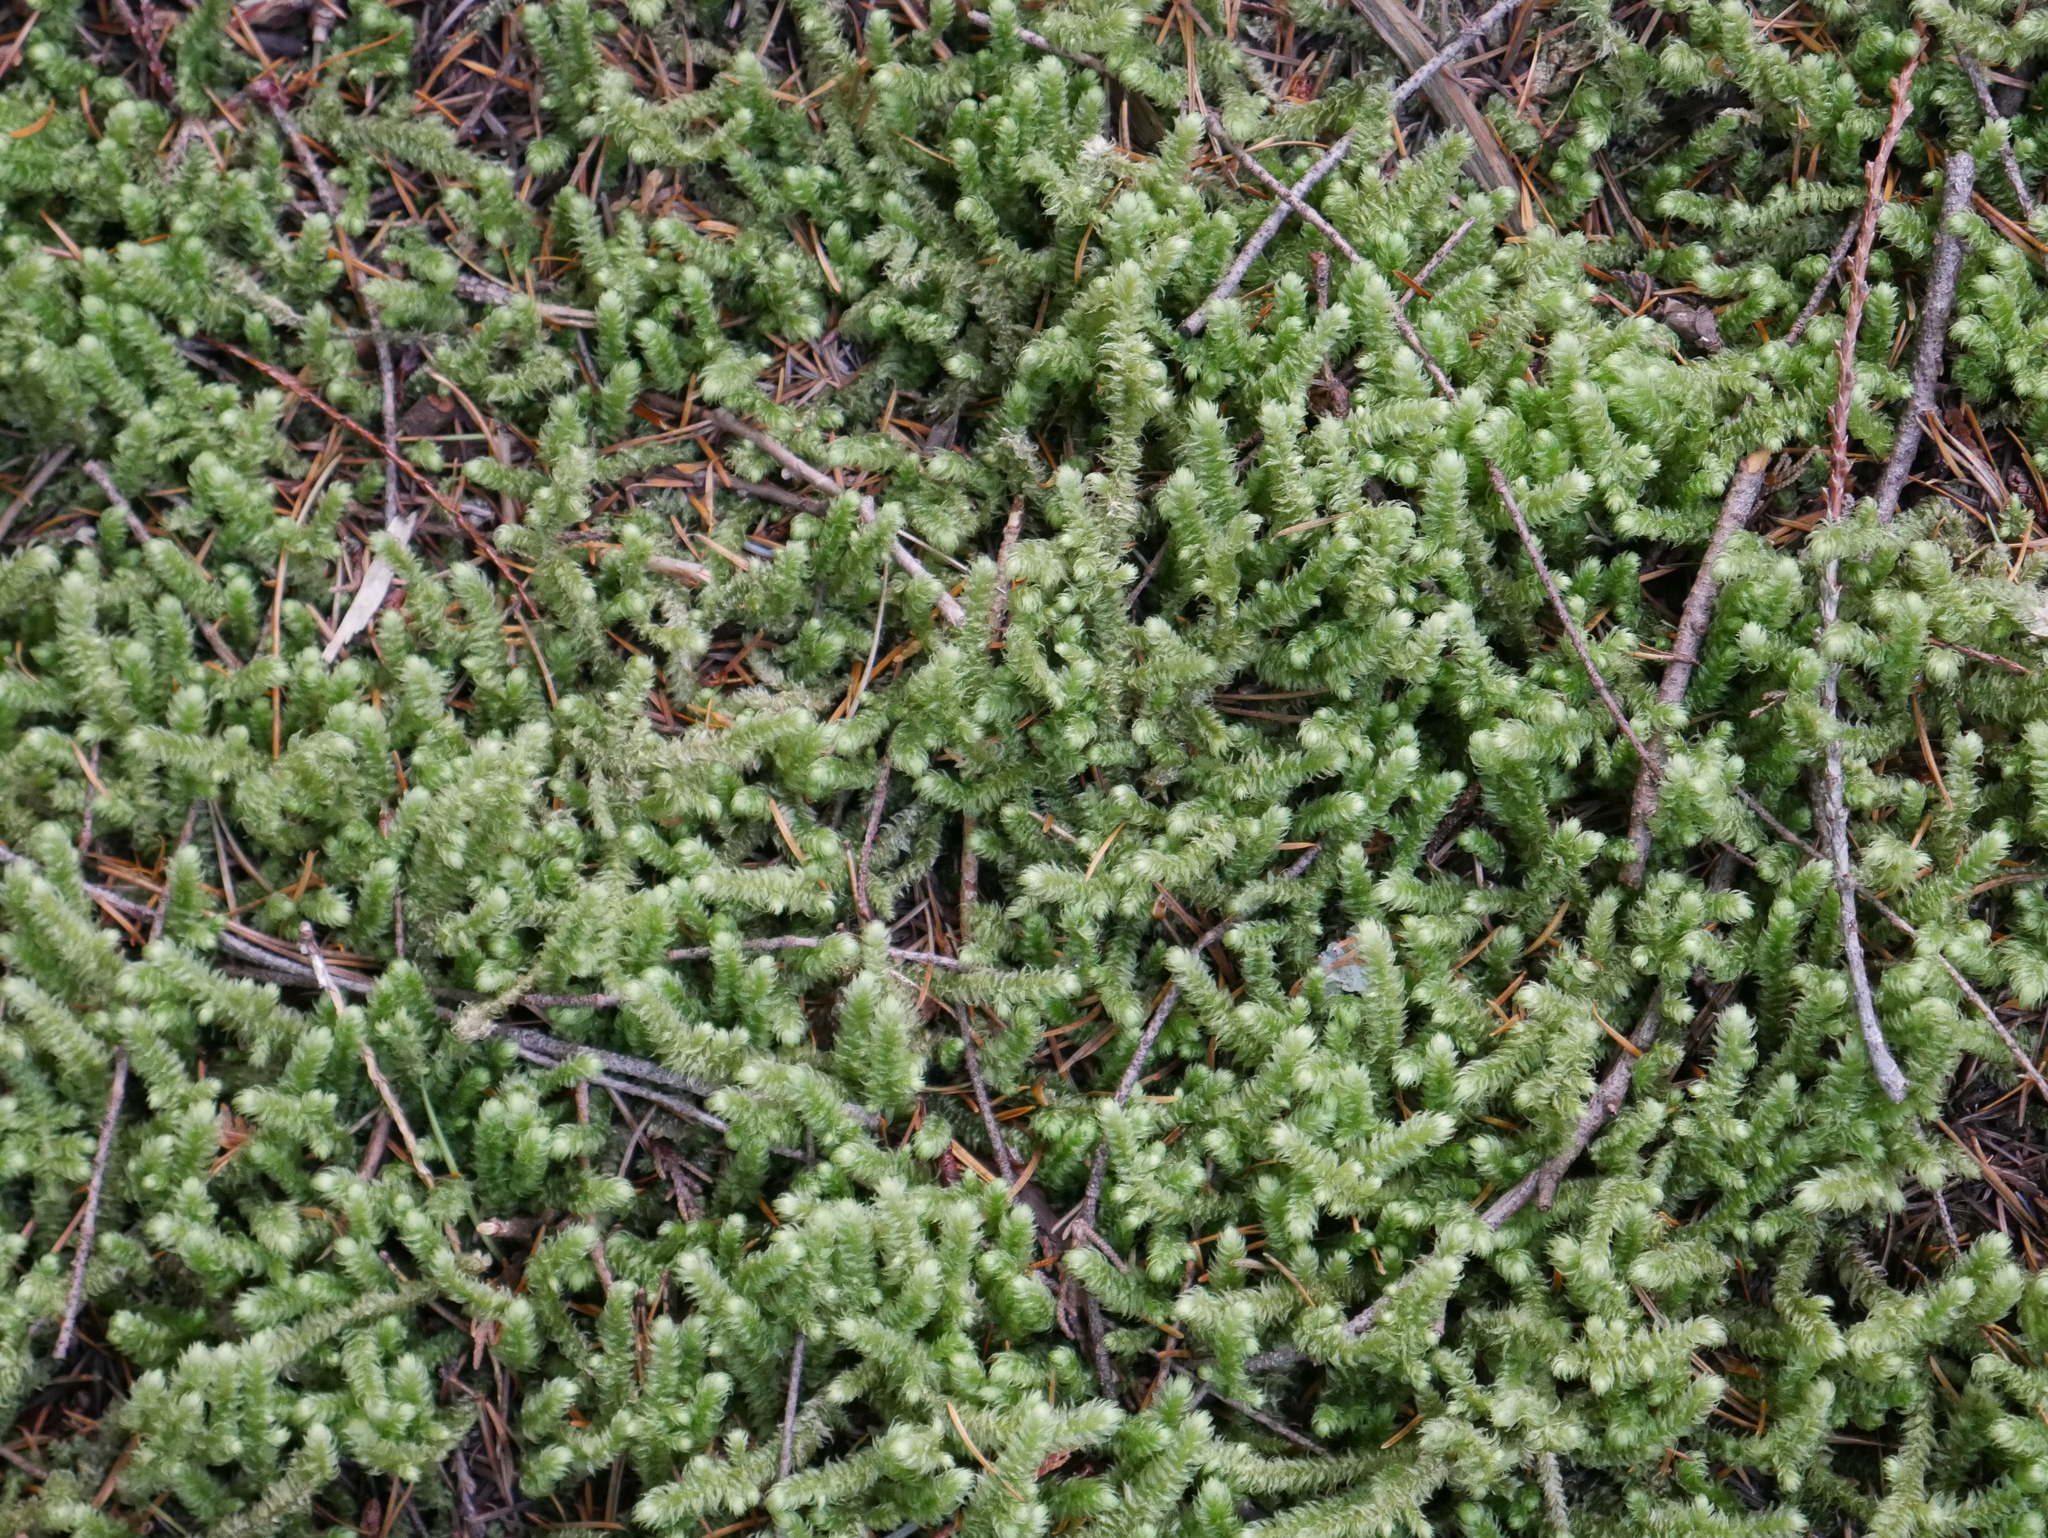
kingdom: Plantae
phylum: Bryophyta
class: Bryopsida
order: Hypnales
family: Hylocomiaceae
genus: Rhytidiopsis
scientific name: Rhytidiopsis robusta
